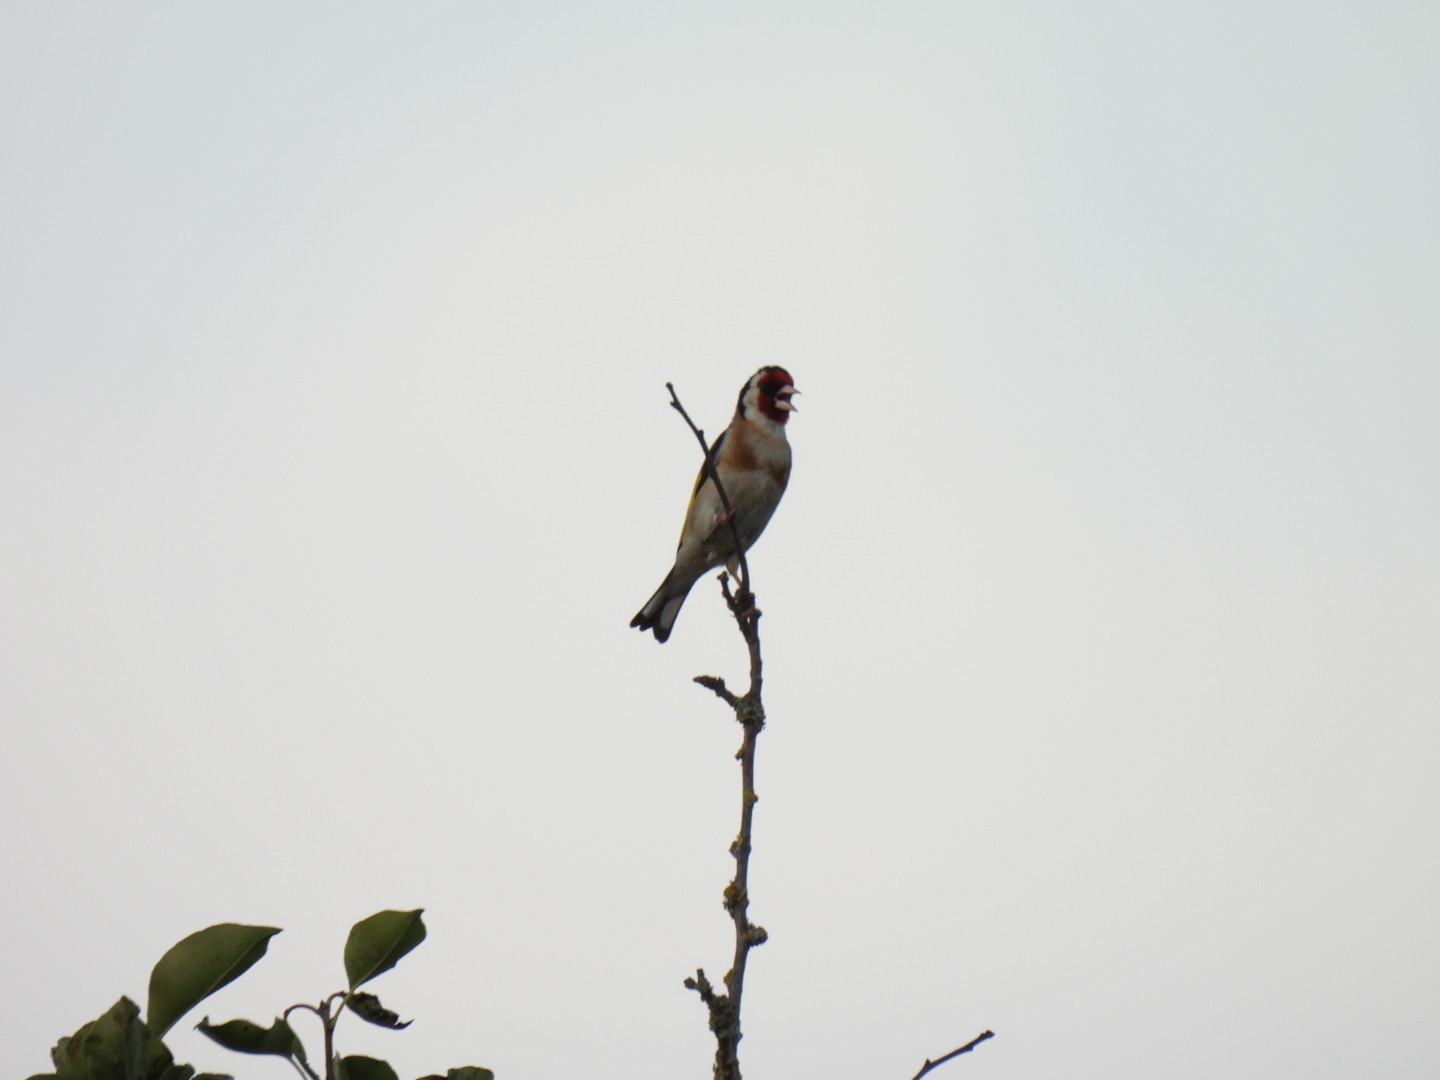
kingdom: Animalia
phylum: Chordata
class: Aves
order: Passeriformes
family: Fringillidae
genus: Carduelis
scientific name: Carduelis carduelis
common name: European goldfinch
